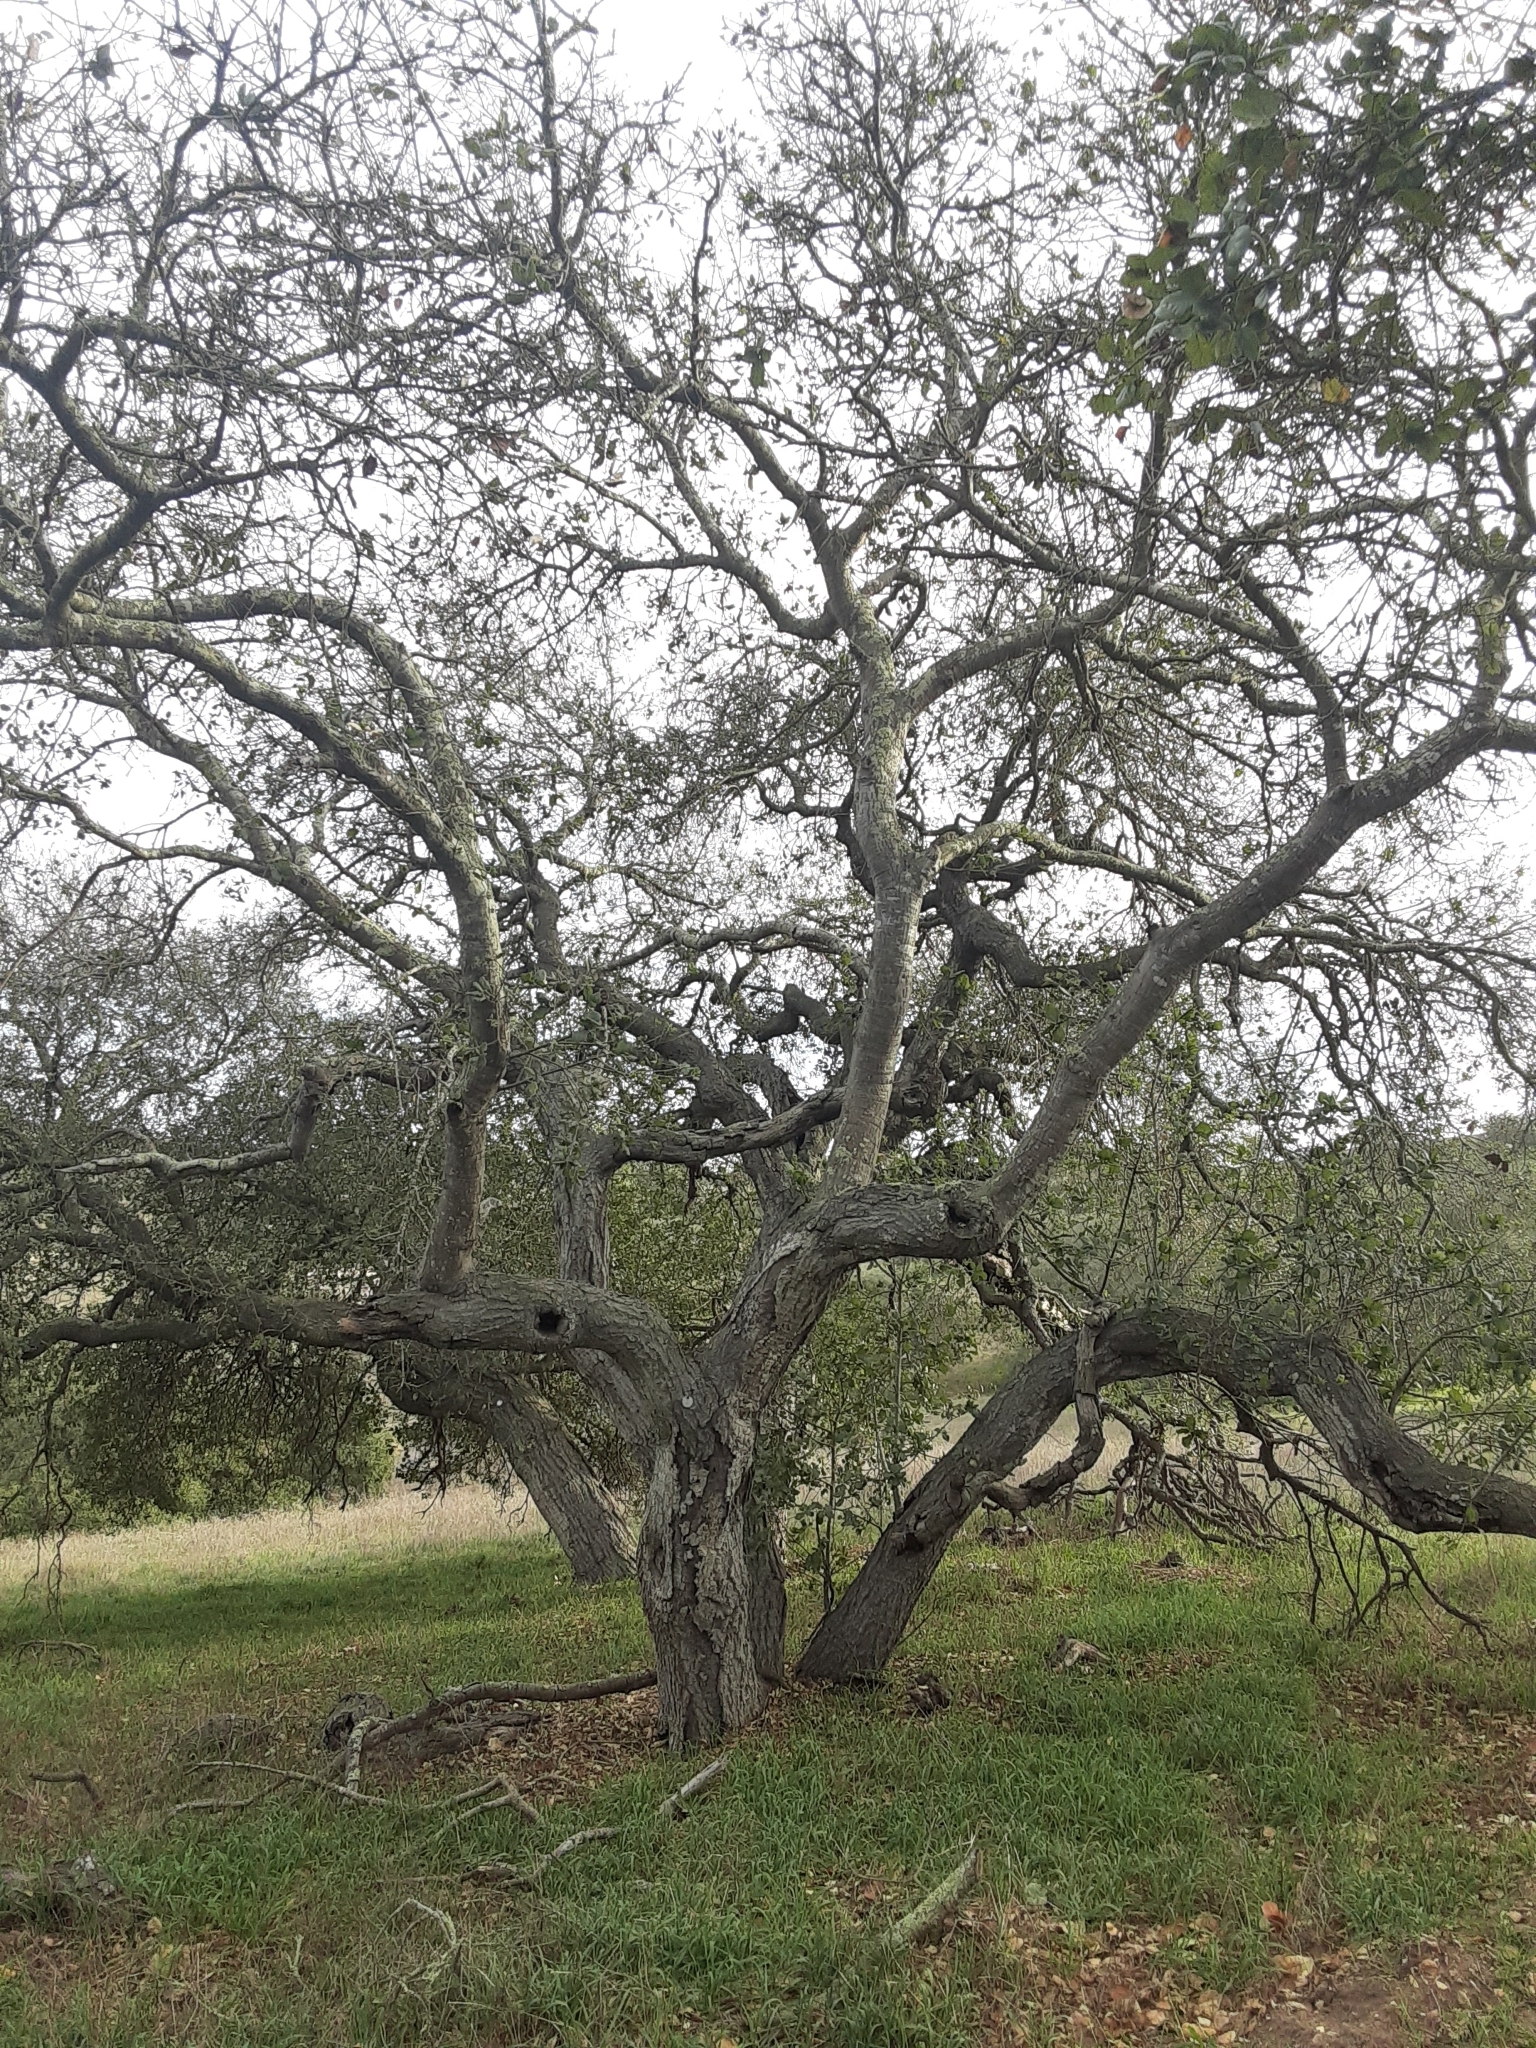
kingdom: Plantae
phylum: Tracheophyta
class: Magnoliopsida
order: Fagales
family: Fagaceae
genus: Quercus
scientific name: Quercus agrifolia
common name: California live oak
